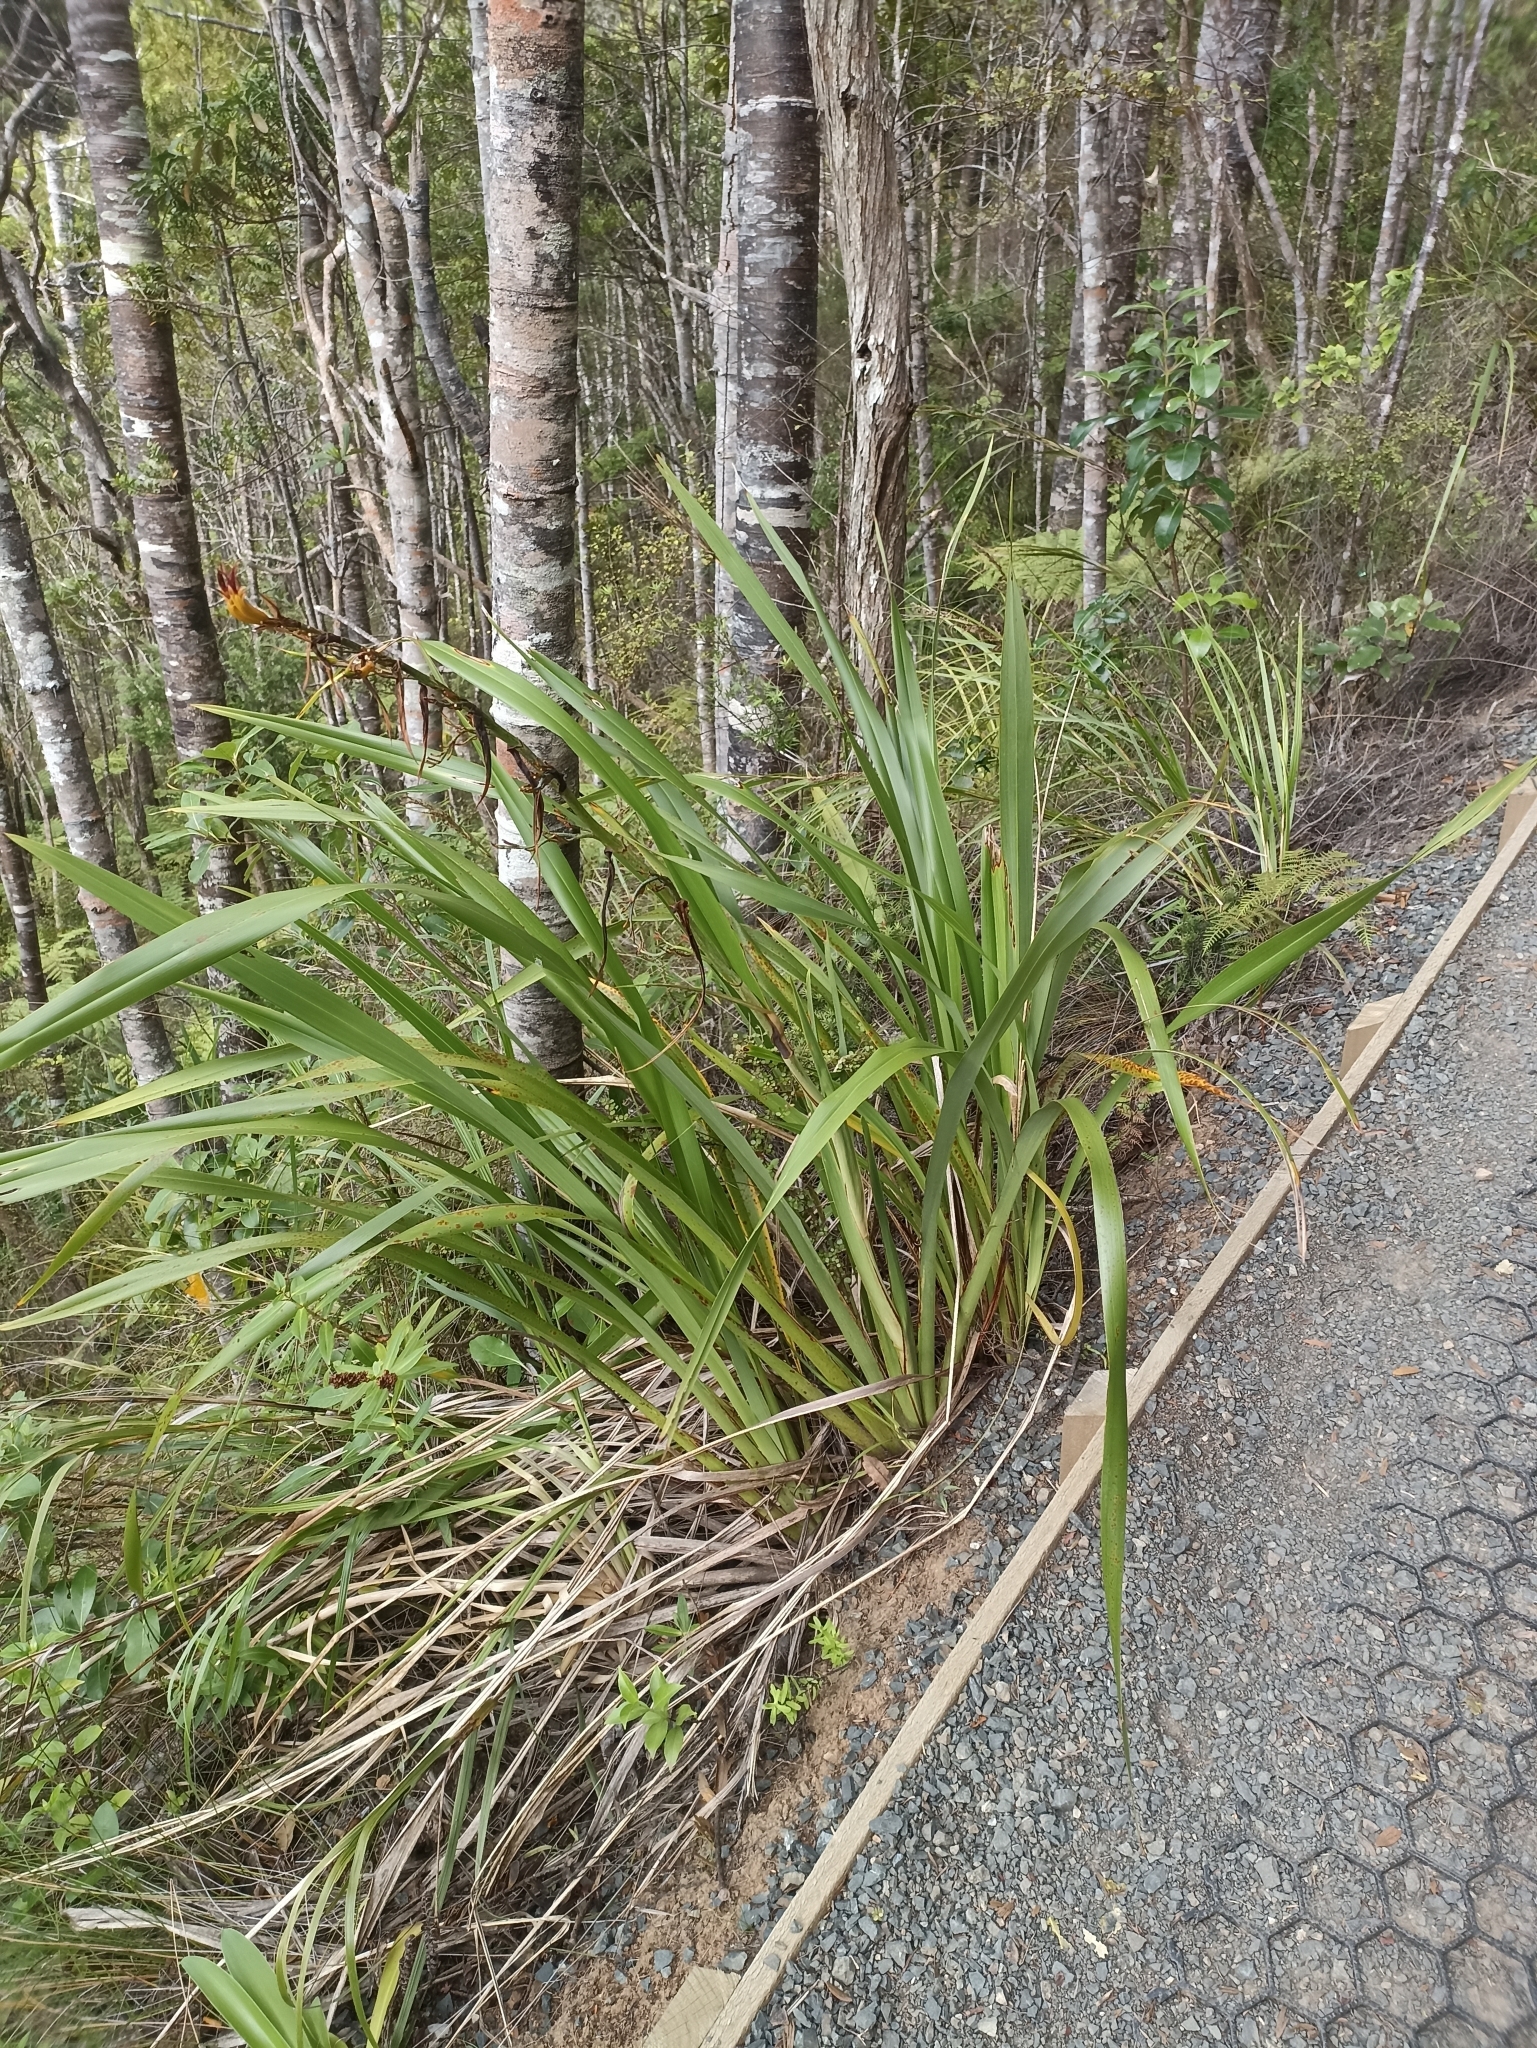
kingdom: Plantae
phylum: Tracheophyta
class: Liliopsida
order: Asparagales
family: Asphodelaceae
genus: Phormium
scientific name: Phormium colensoi
